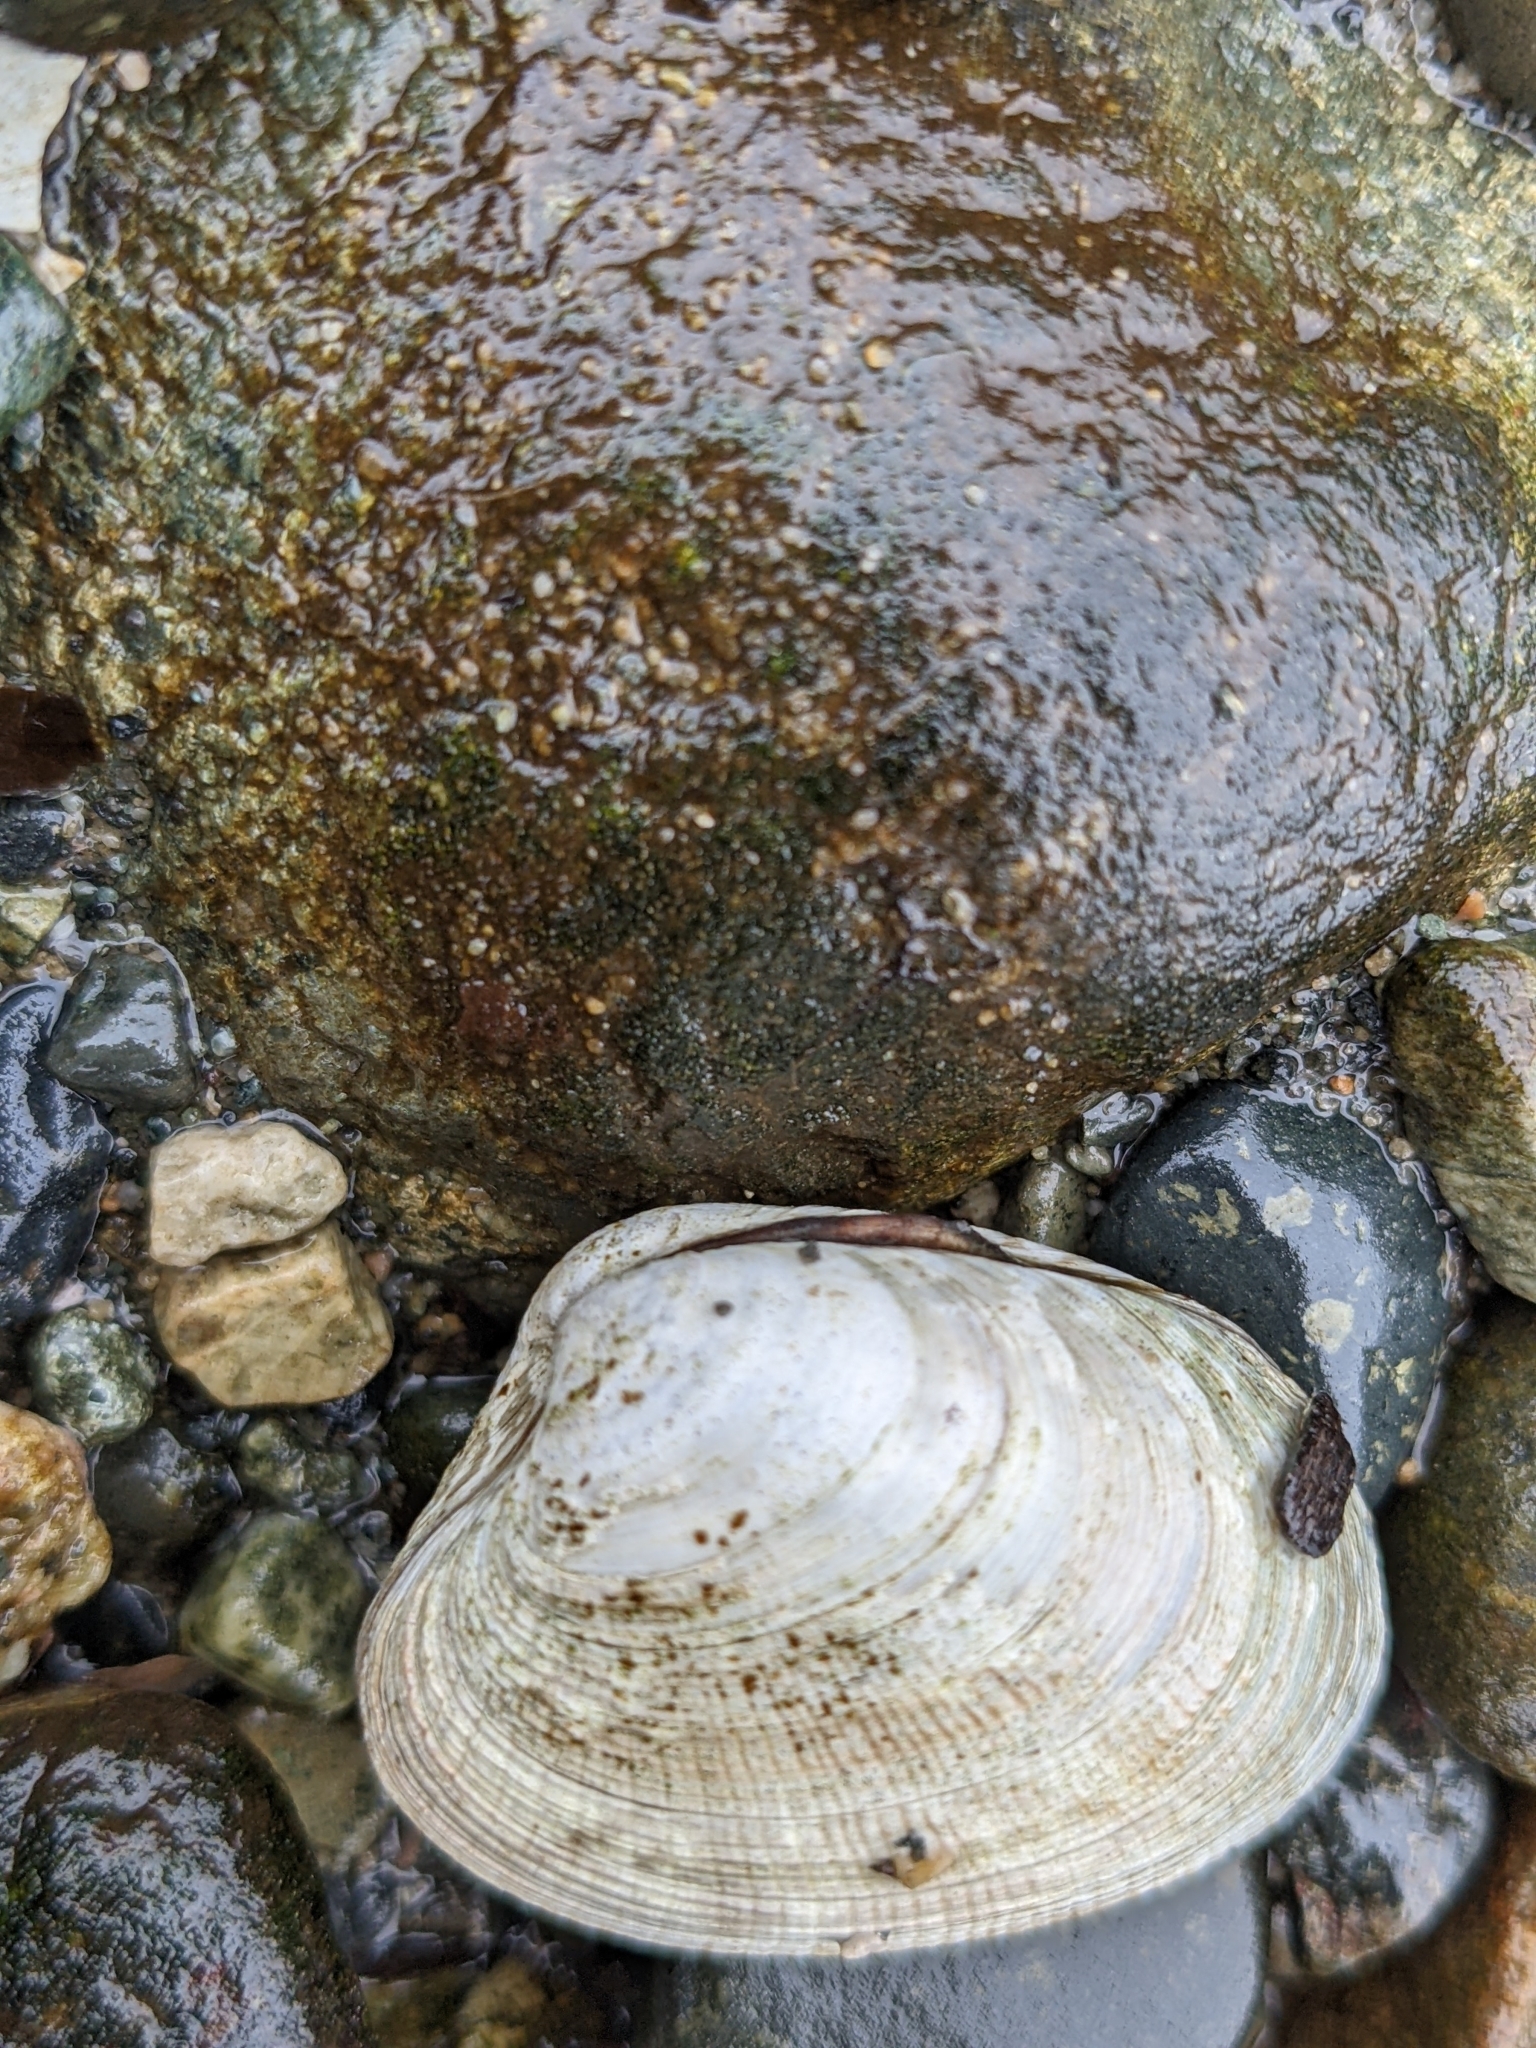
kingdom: Animalia
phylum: Mollusca
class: Bivalvia
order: Venerida
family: Veneridae
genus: Ruditapes
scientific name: Ruditapes philippinarum
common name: Manila clam
